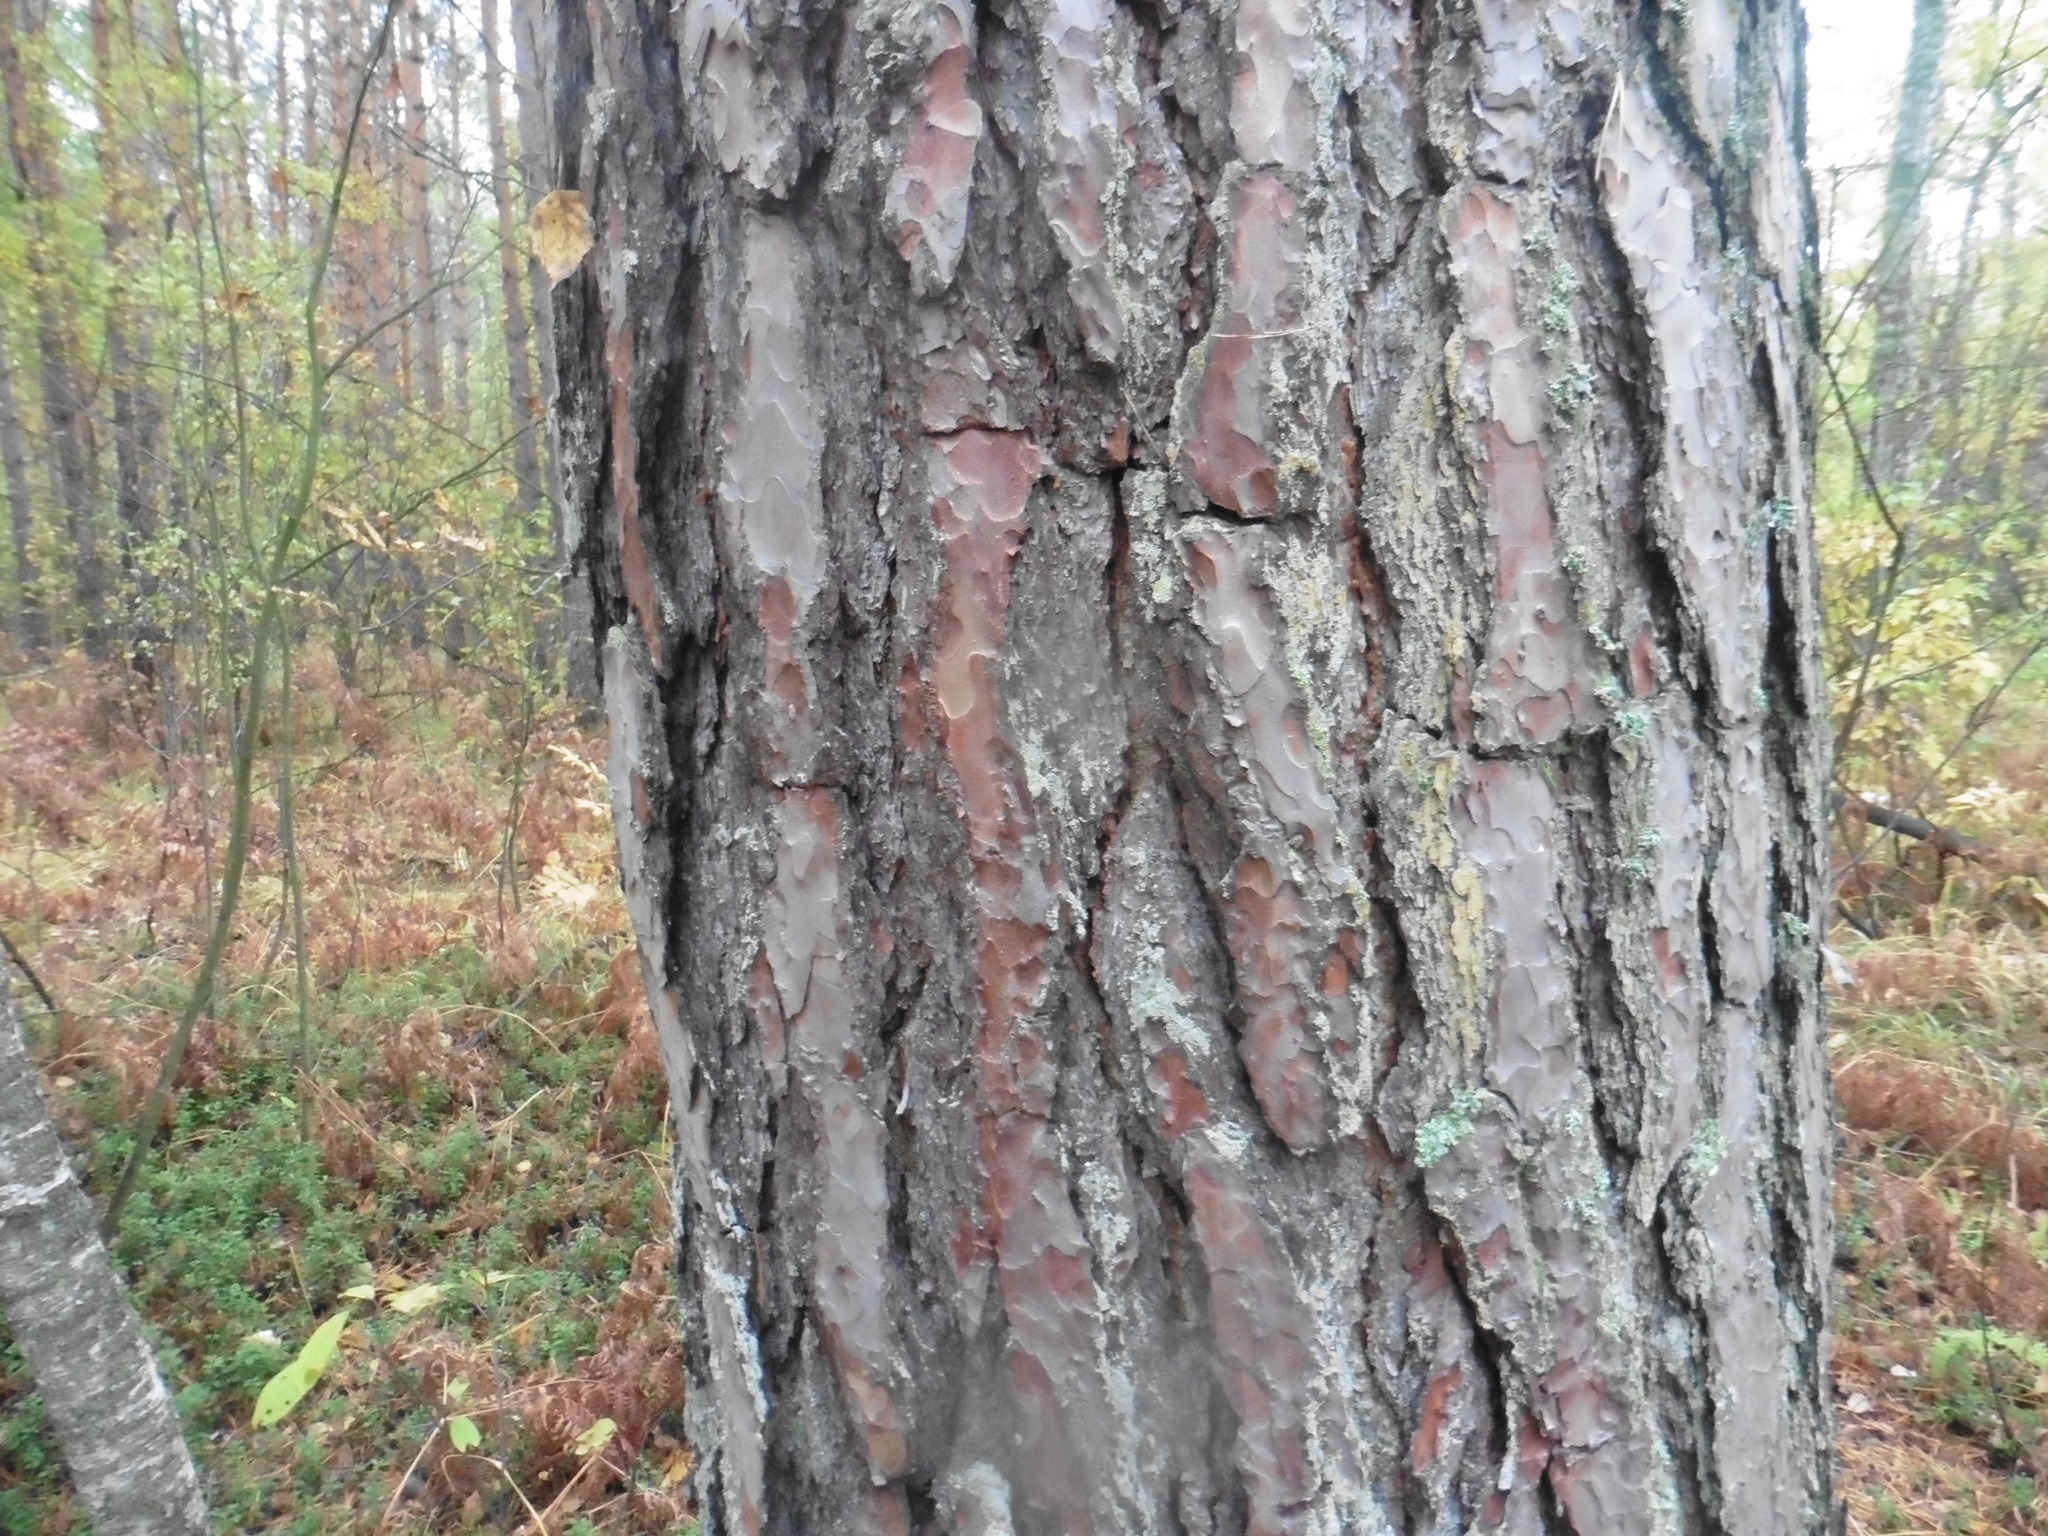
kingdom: Plantae
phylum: Tracheophyta
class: Pinopsida
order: Pinales
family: Pinaceae
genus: Pinus
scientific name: Pinus sylvestris
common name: Scots pine
